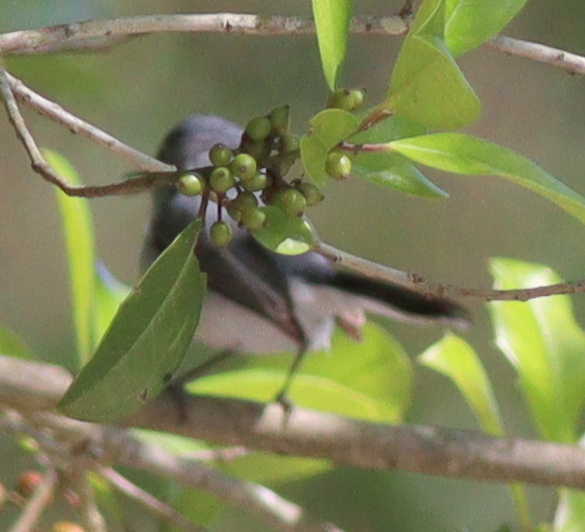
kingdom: Animalia
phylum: Chordata
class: Aves
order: Passeriformes
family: Polioptilidae
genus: Polioptila
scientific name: Polioptila caerulea
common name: Blue-gray gnatcatcher
